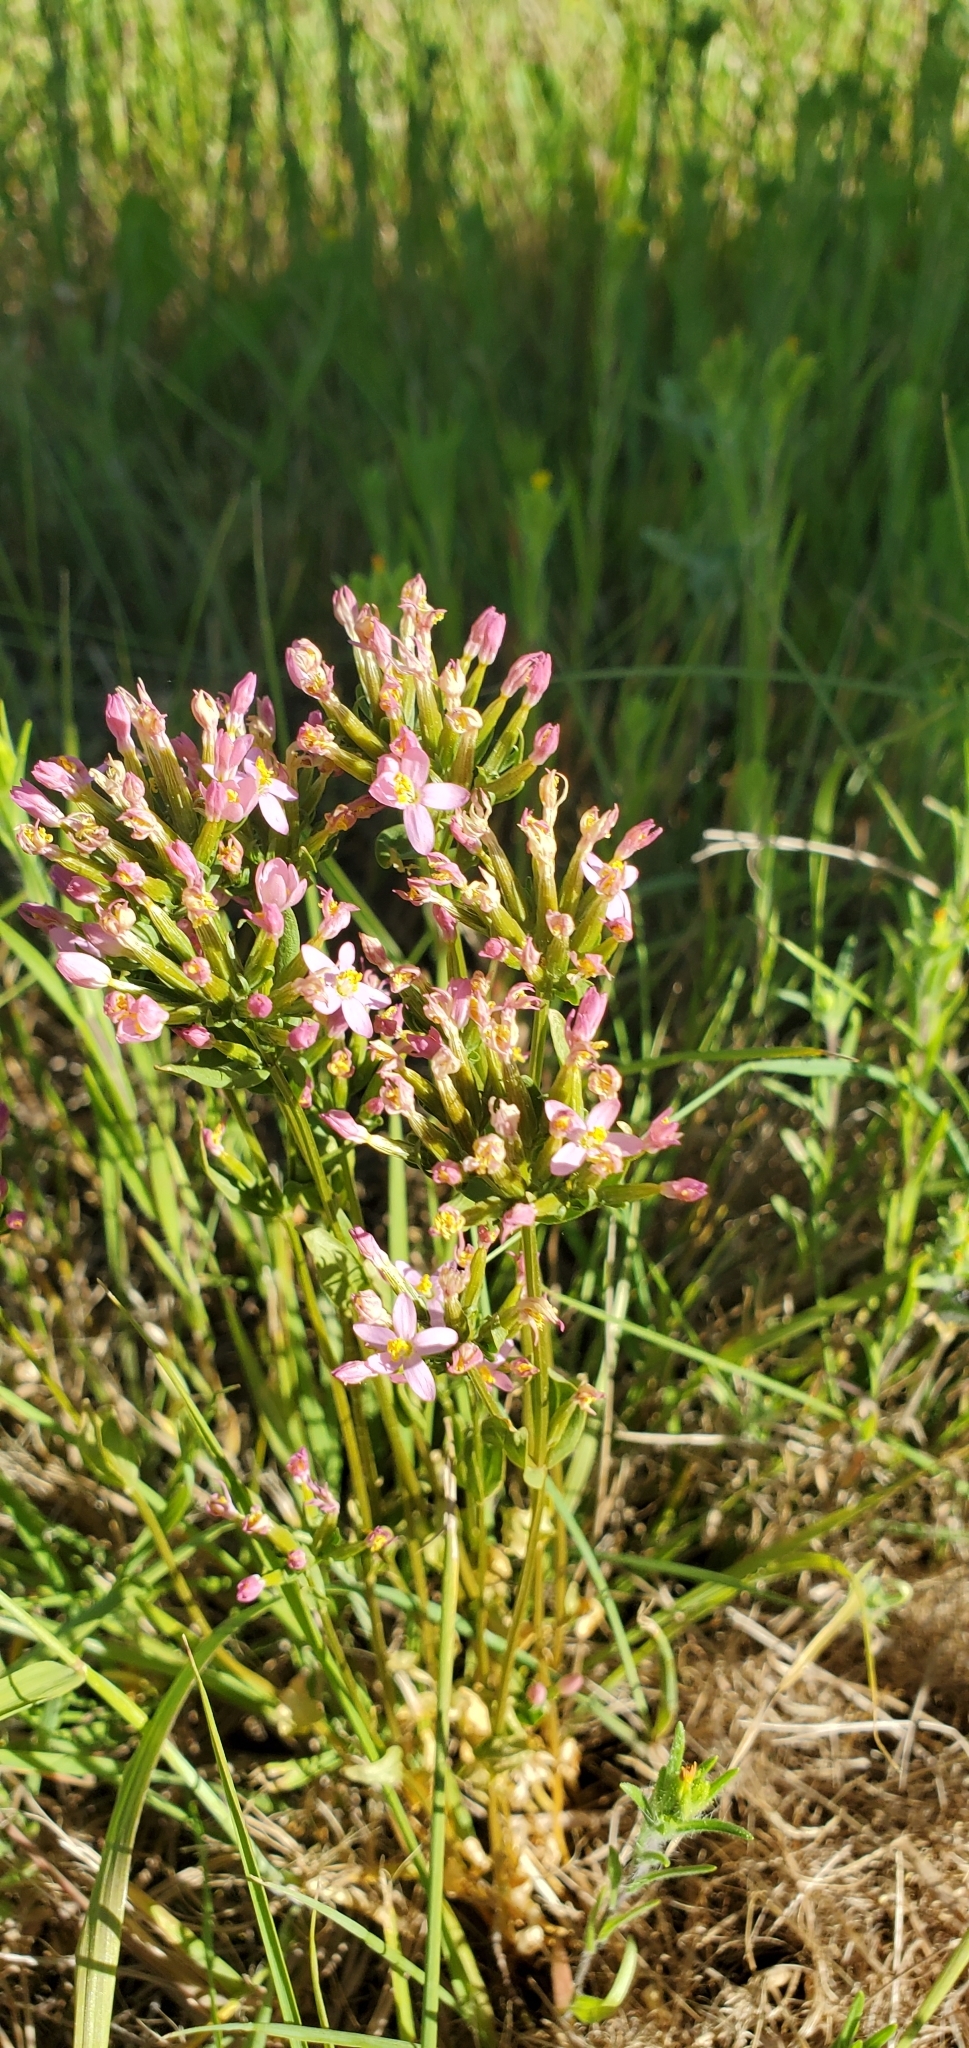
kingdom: Plantae
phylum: Tracheophyta
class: Magnoliopsida
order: Gentianales
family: Gentianaceae
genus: Centaurium
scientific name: Centaurium erythraea
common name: Common centaury
